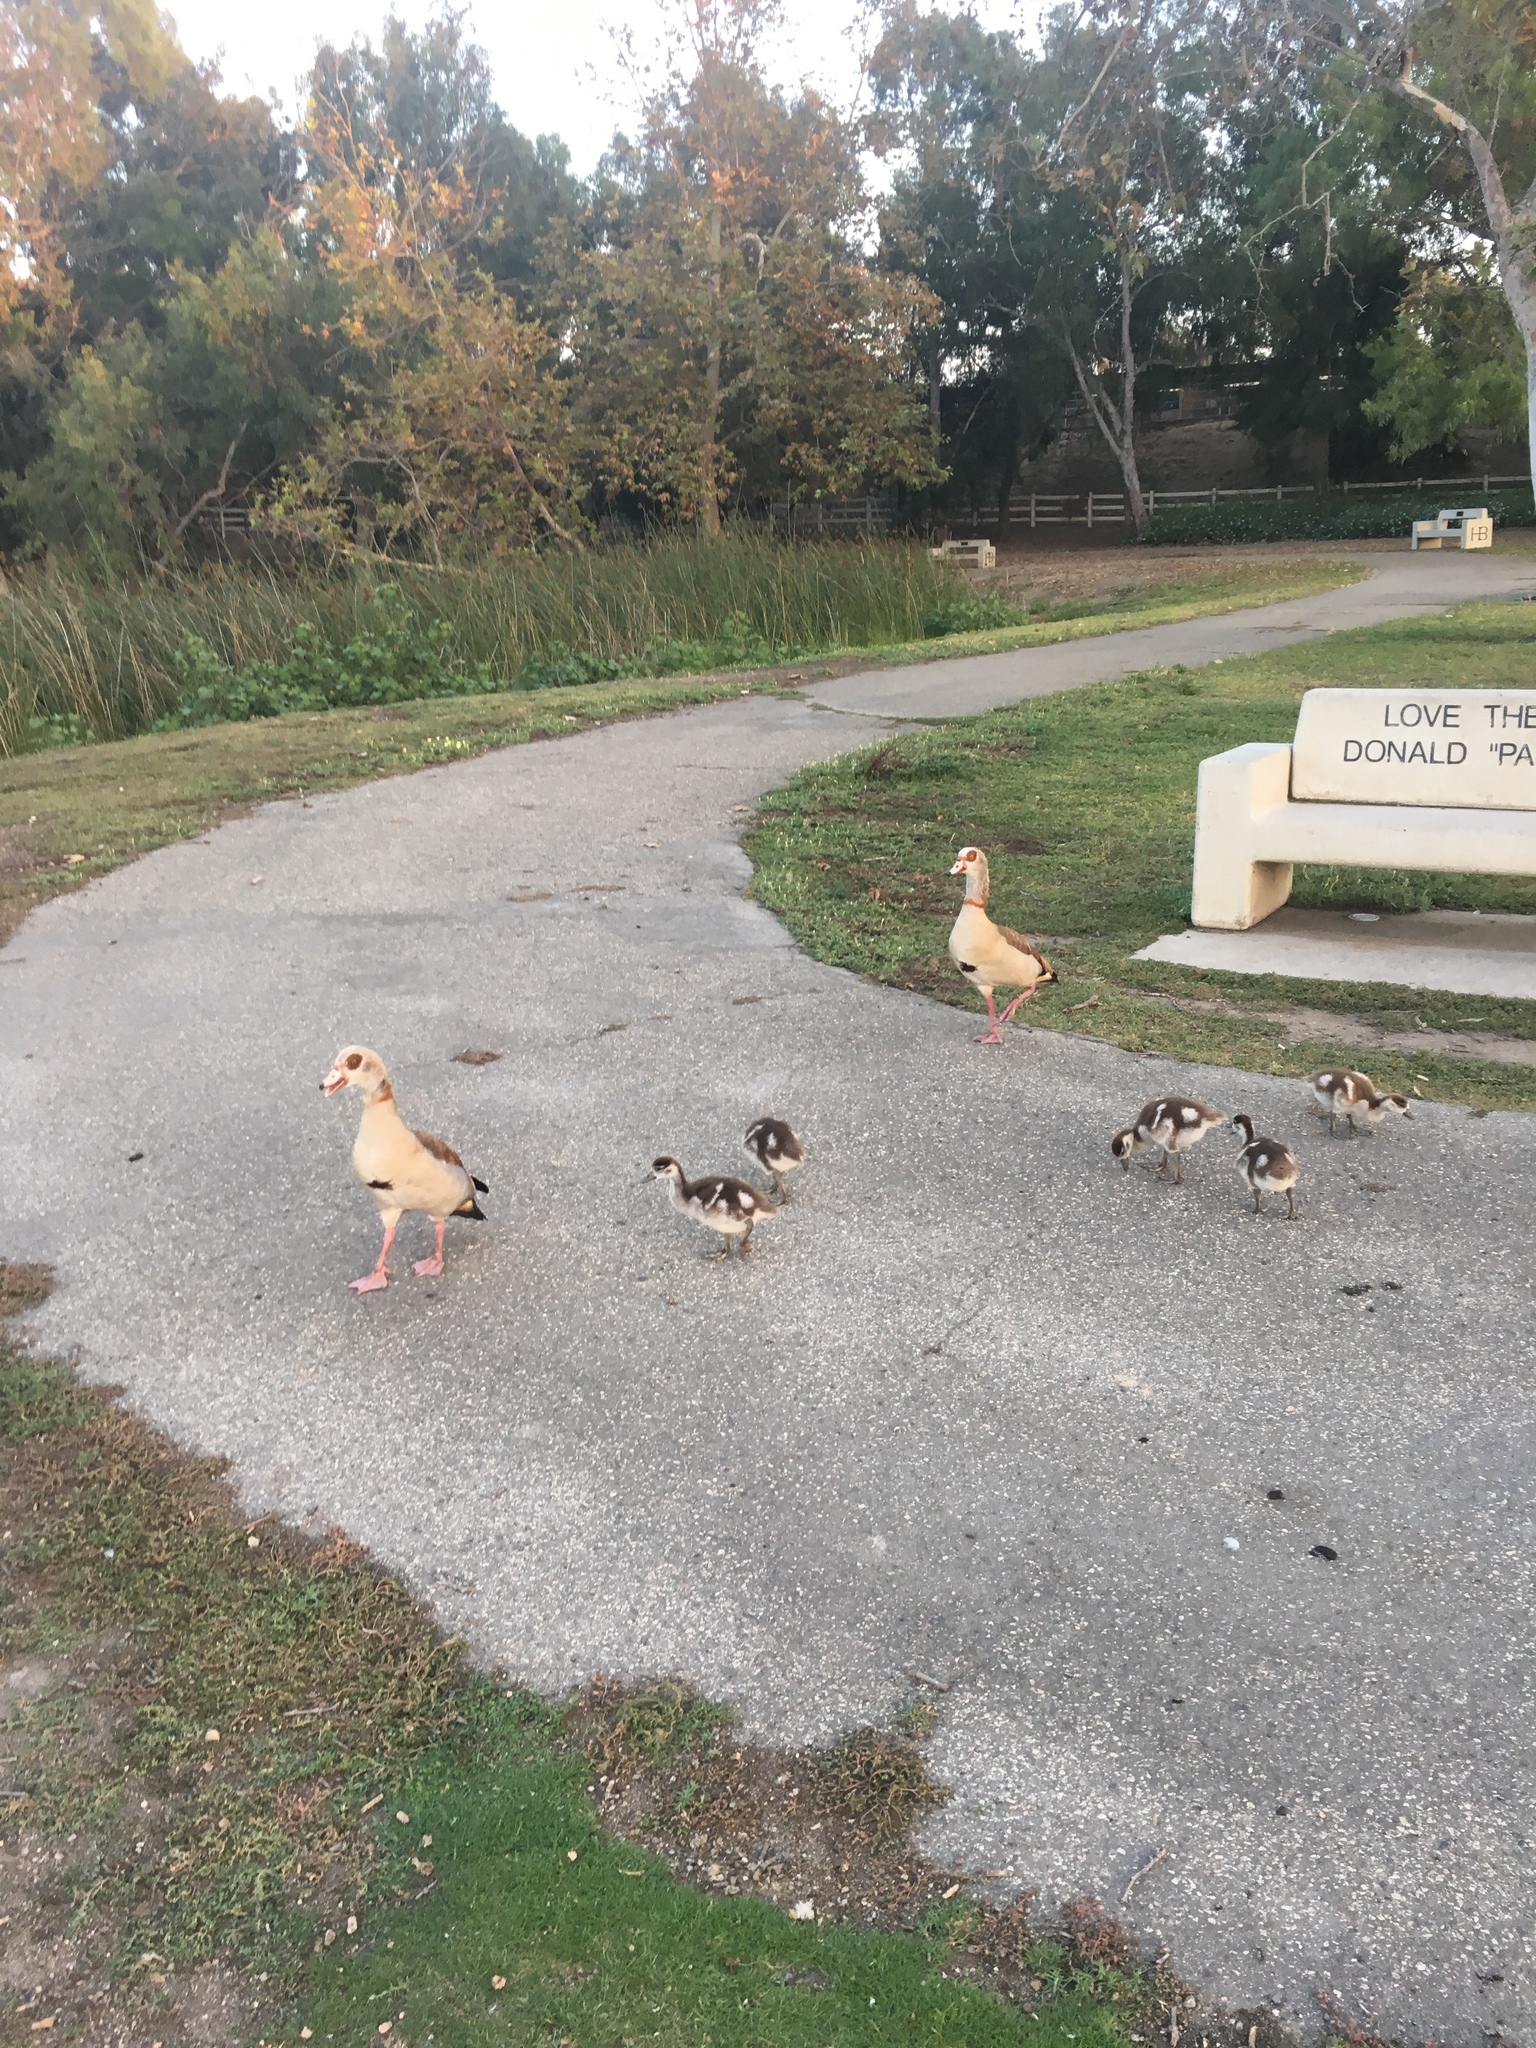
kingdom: Animalia
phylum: Chordata
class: Aves
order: Anseriformes
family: Anatidae
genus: Alopochen
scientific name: Alopochen aegyptiaca
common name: Egyptian goose
